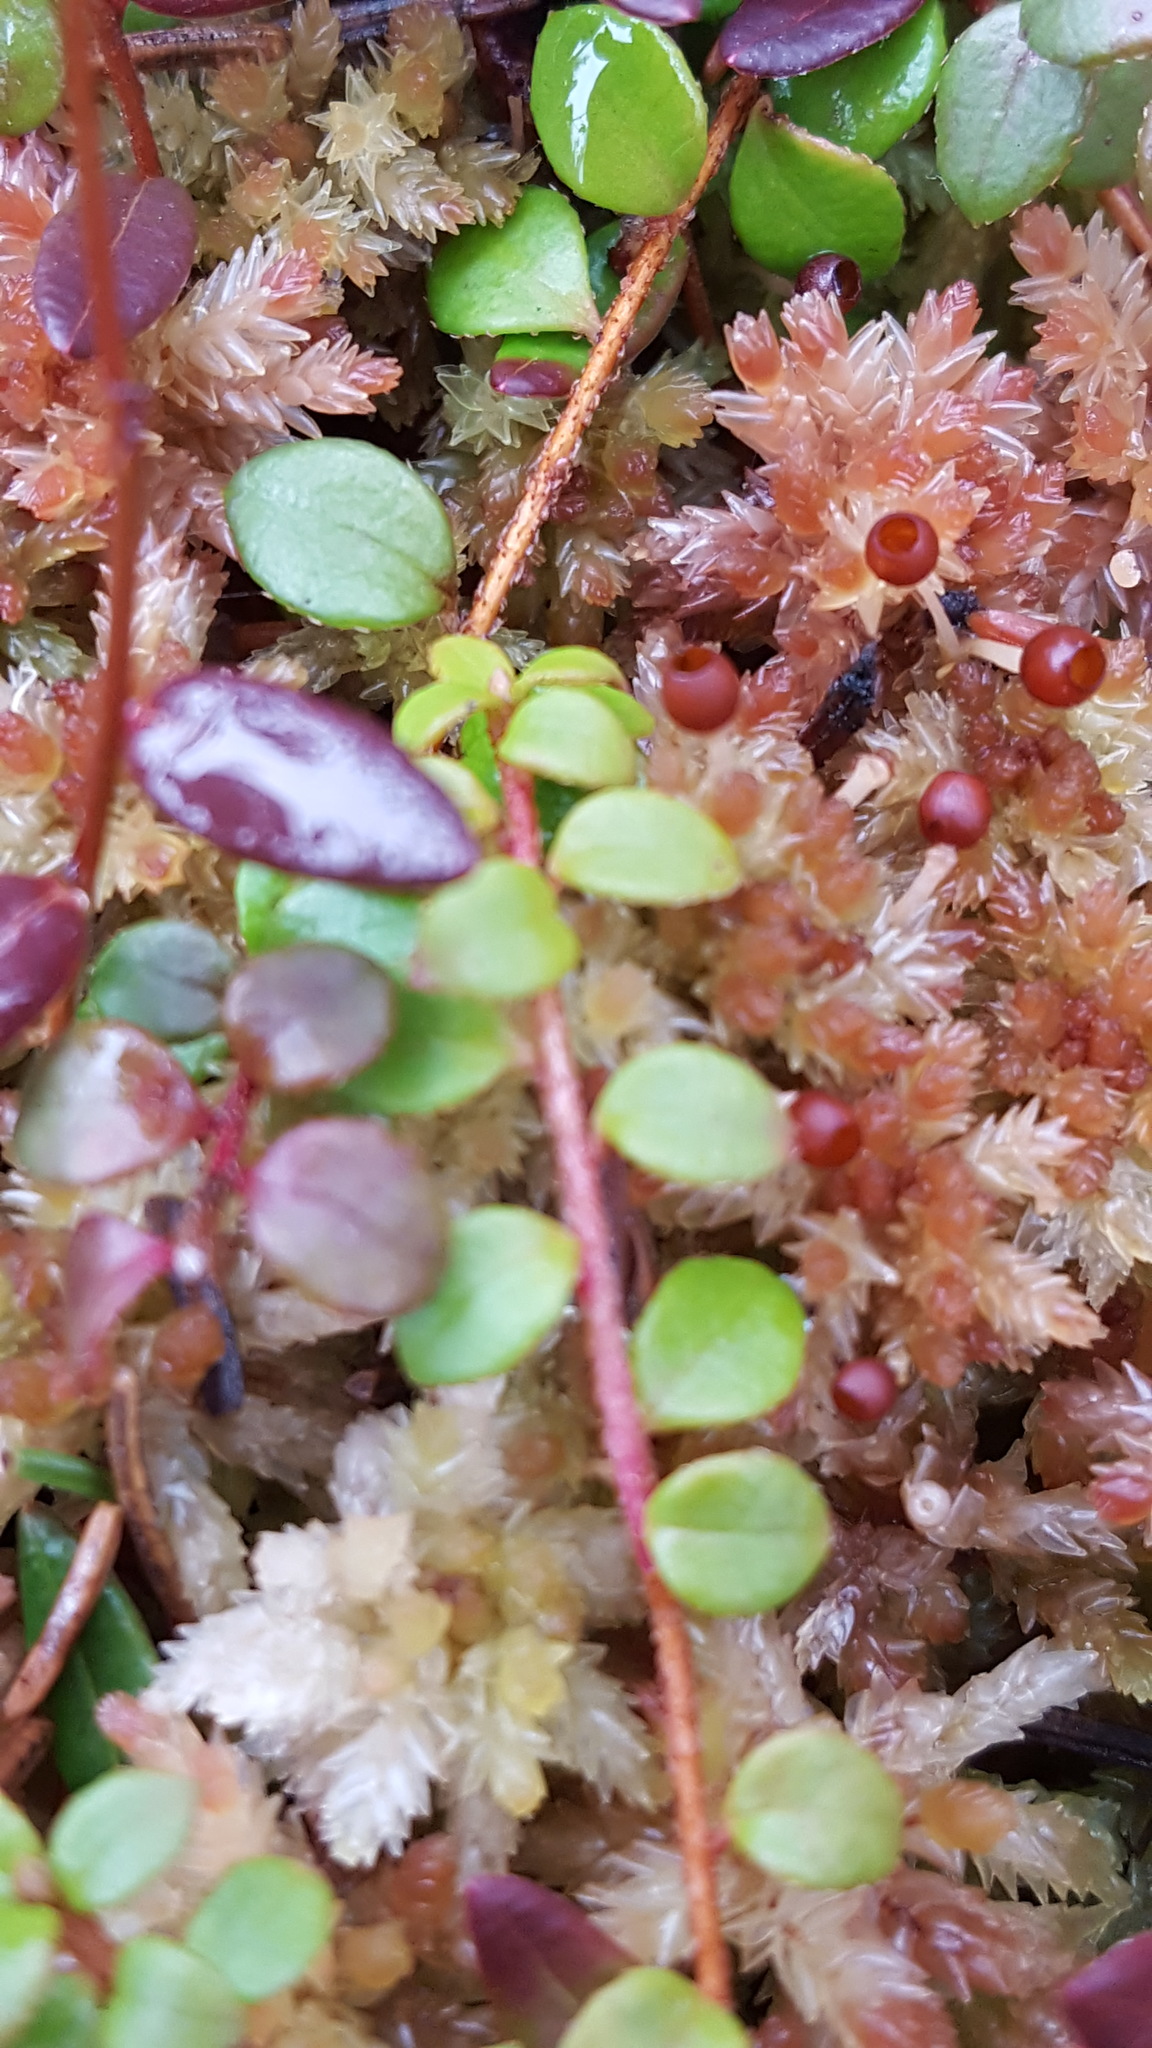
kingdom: Plantae
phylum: Tracheophyta
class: Magnoliopsida
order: Ericales
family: Ericaceae
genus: Gaultheria
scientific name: Gaultheria hispidula
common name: Cancer wintergreen
